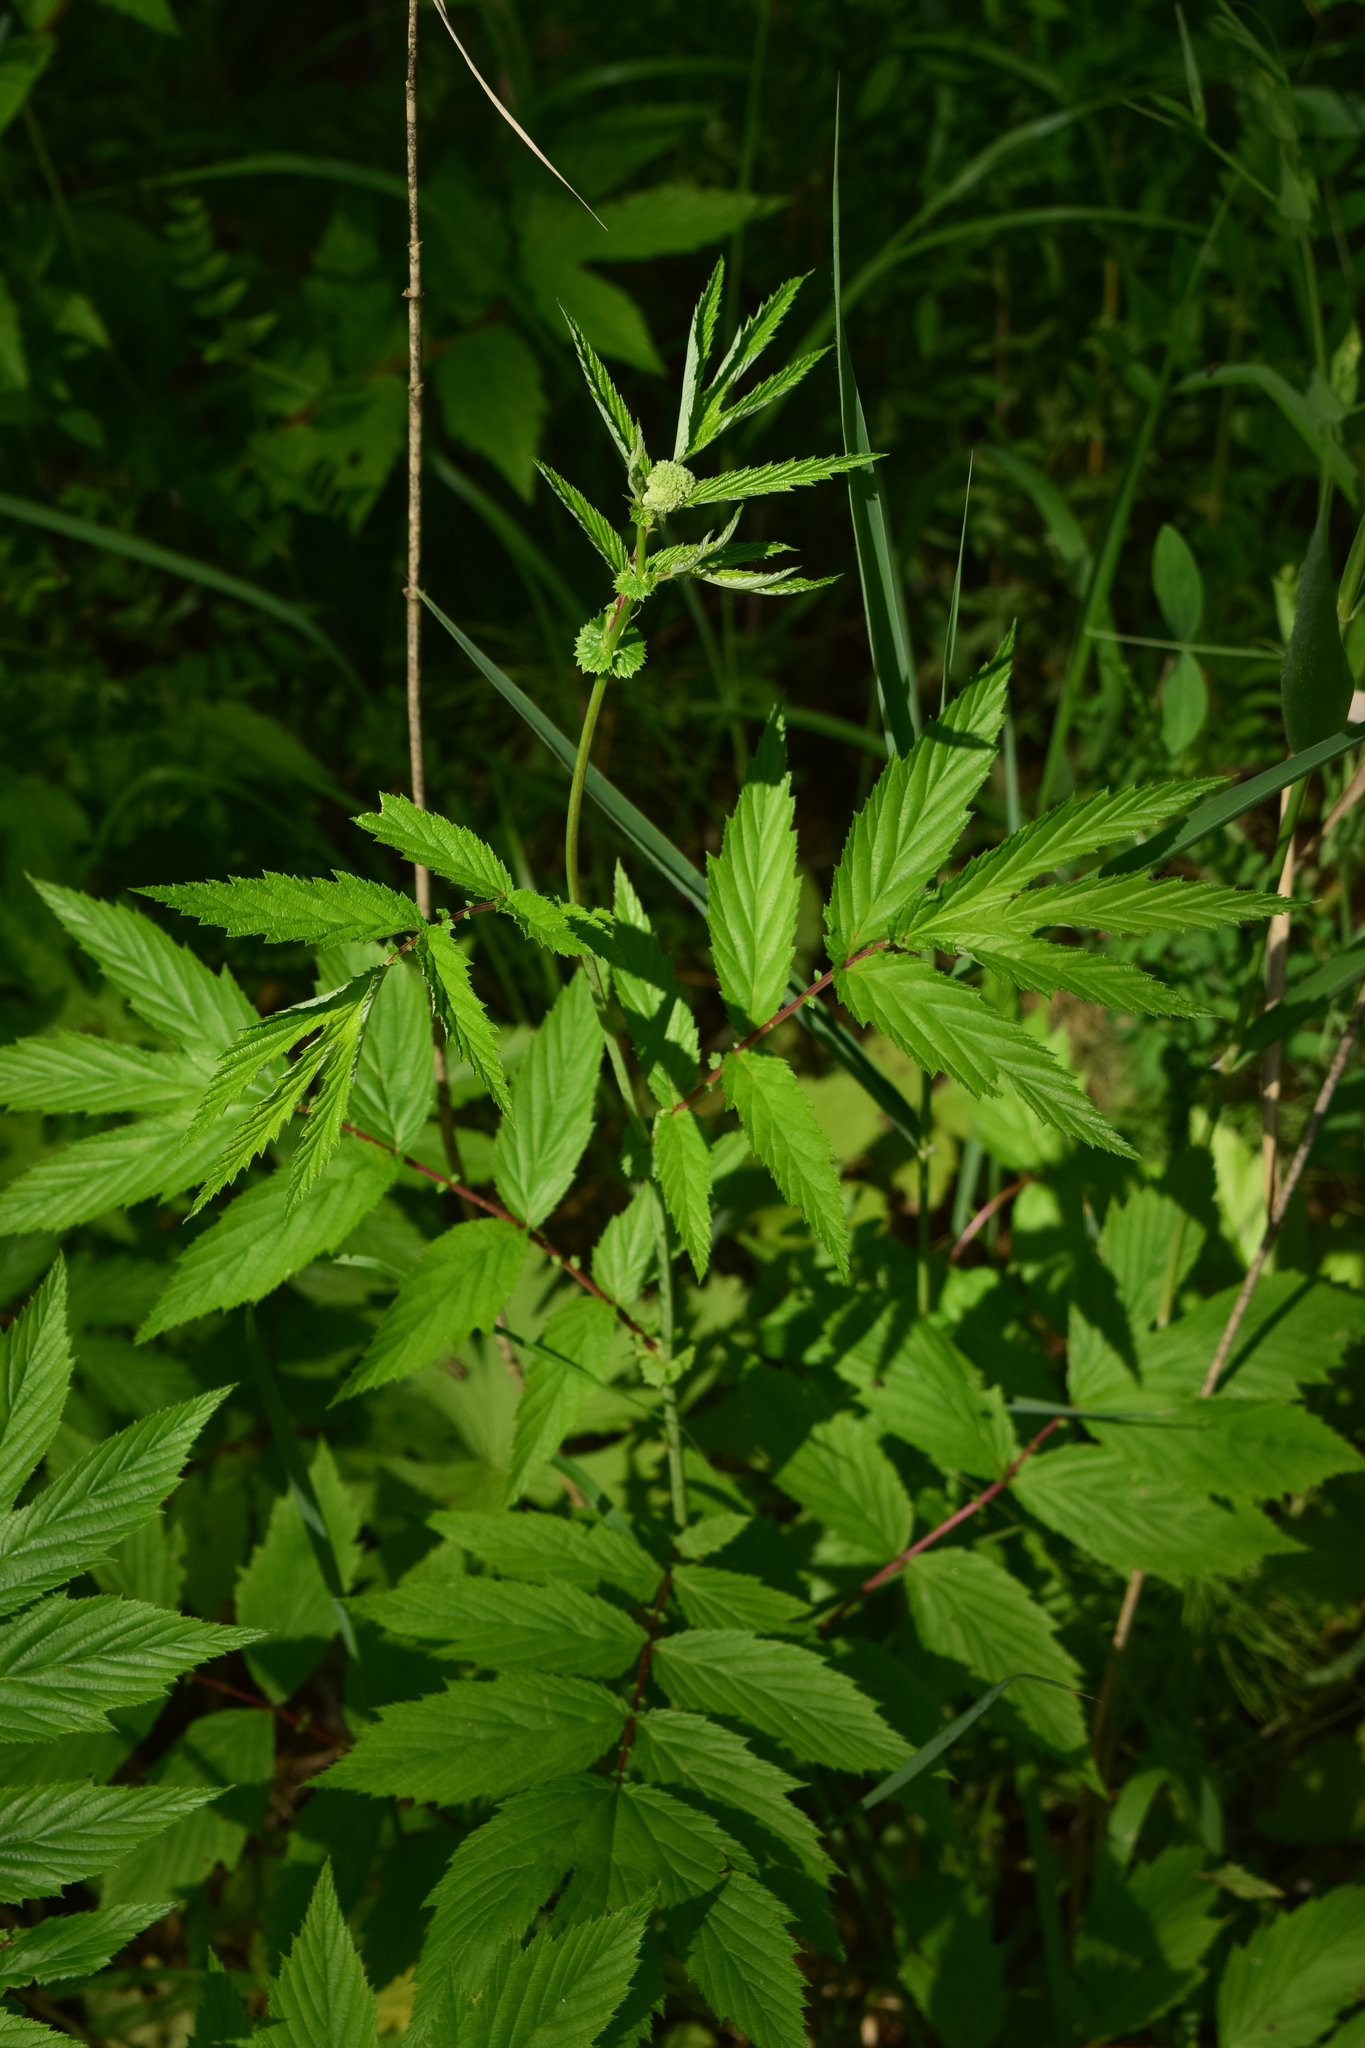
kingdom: Plantae
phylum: Tracheophyta
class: Magnoliopsida
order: Rosales
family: Rosaceae
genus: Filipendula
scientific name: Filipendula ulmaria
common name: Meadowsweet
